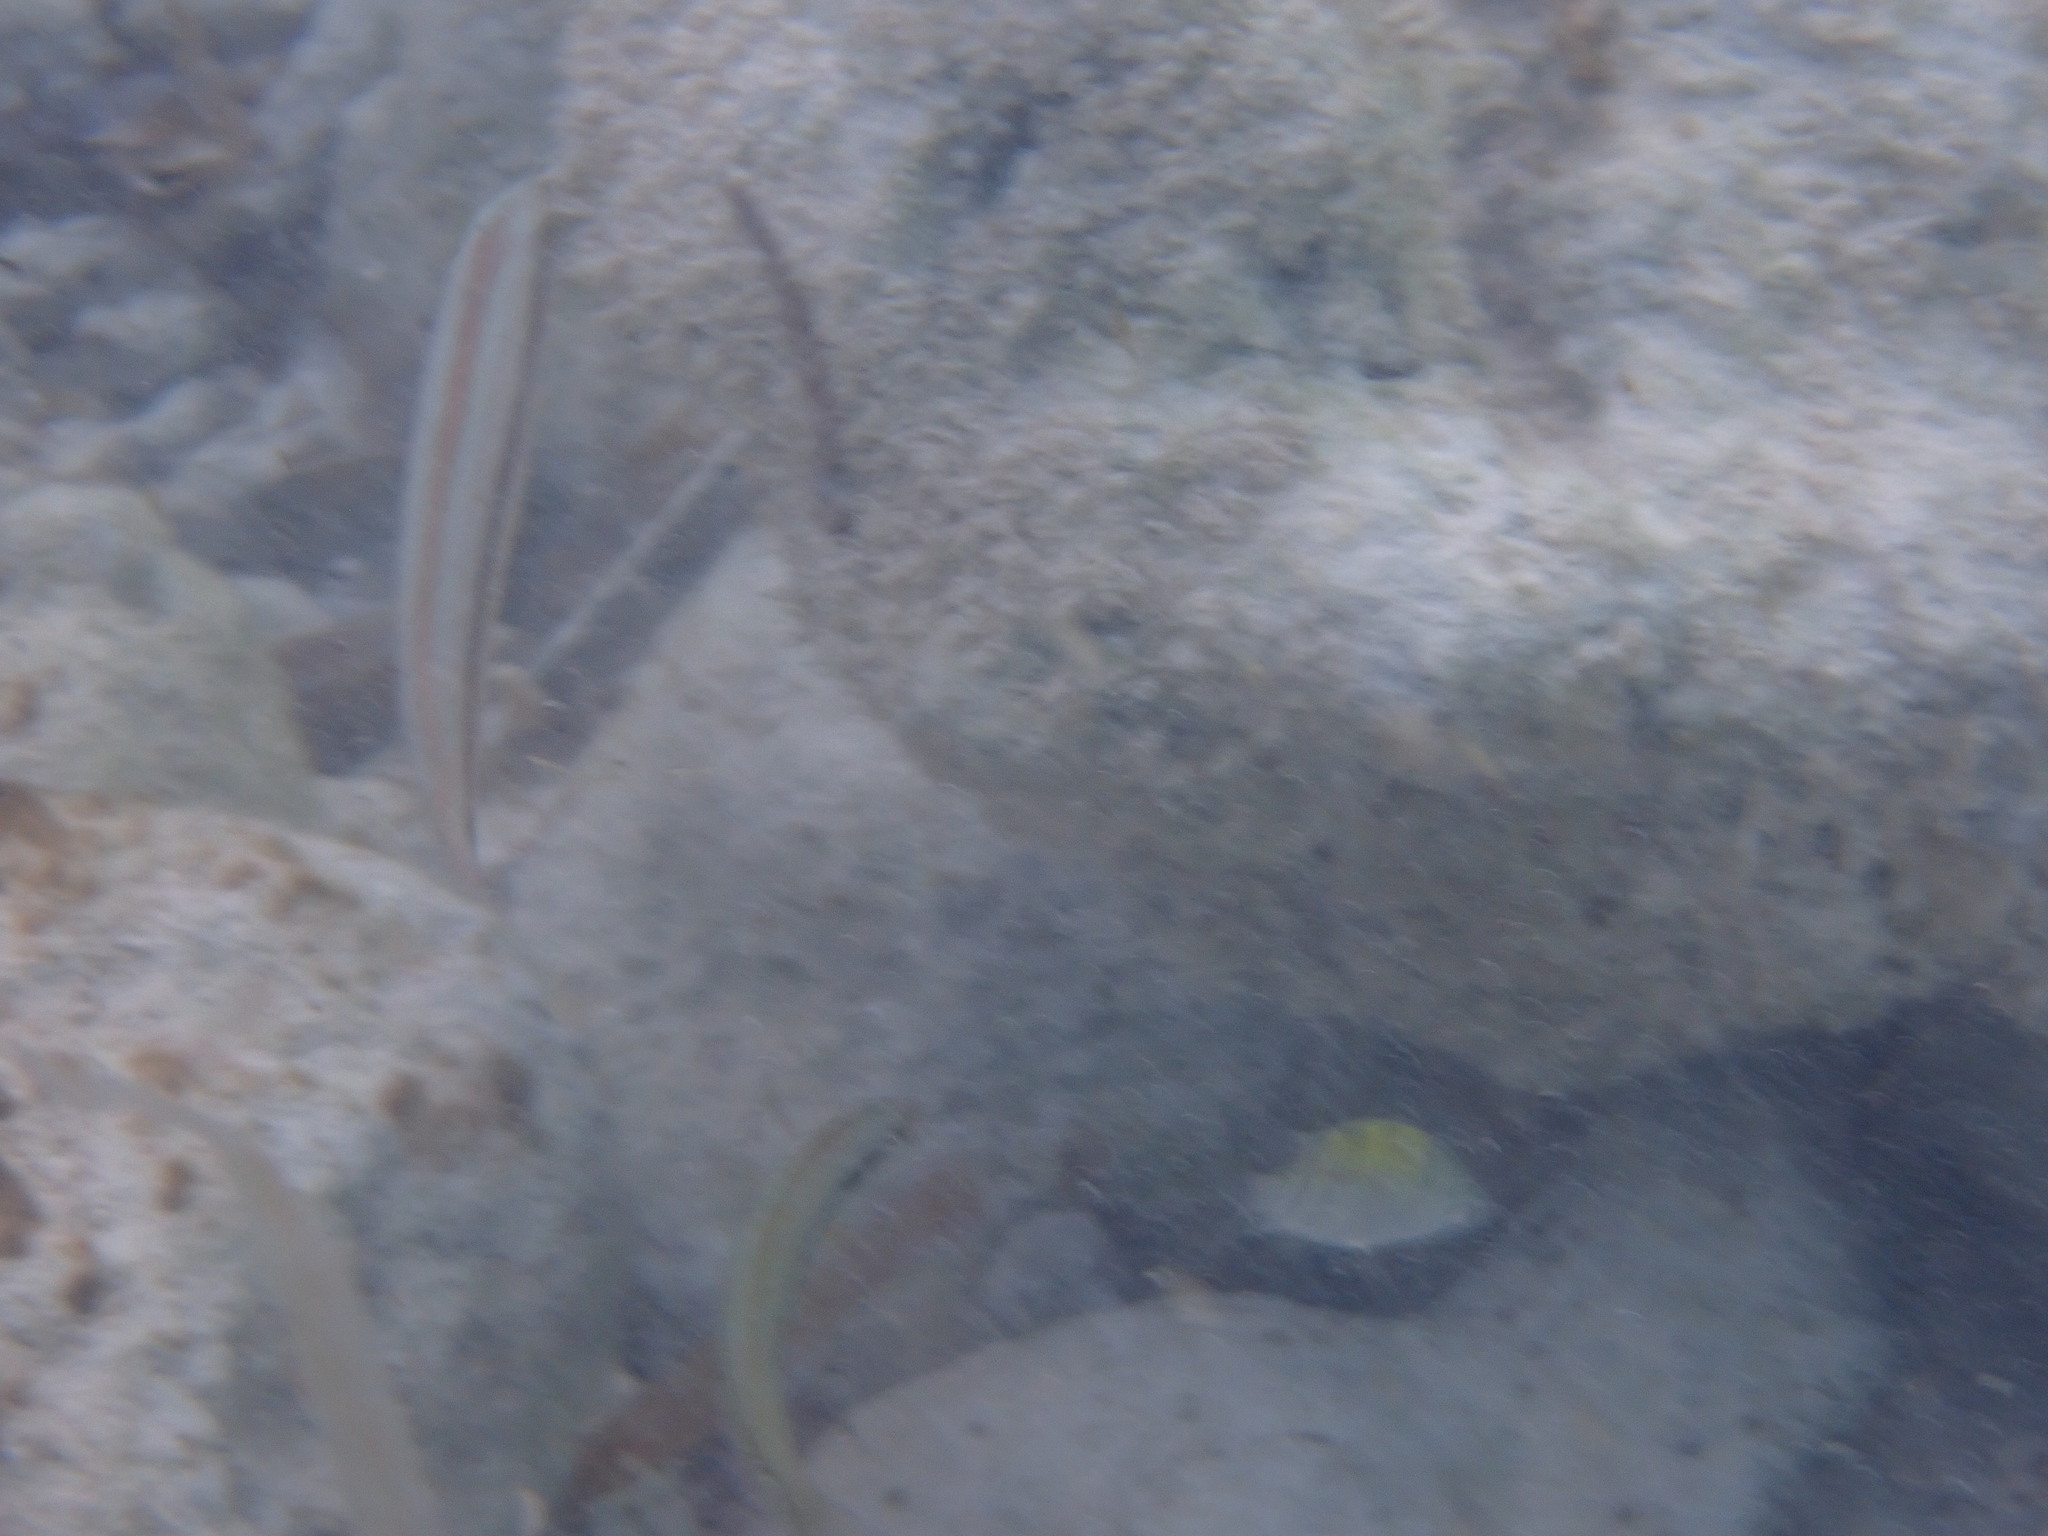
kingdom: Animalia
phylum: Chordata
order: Perciformes
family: Labridae
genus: Halichoeres
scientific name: Halichoeres bivittatus
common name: Slippery dick
